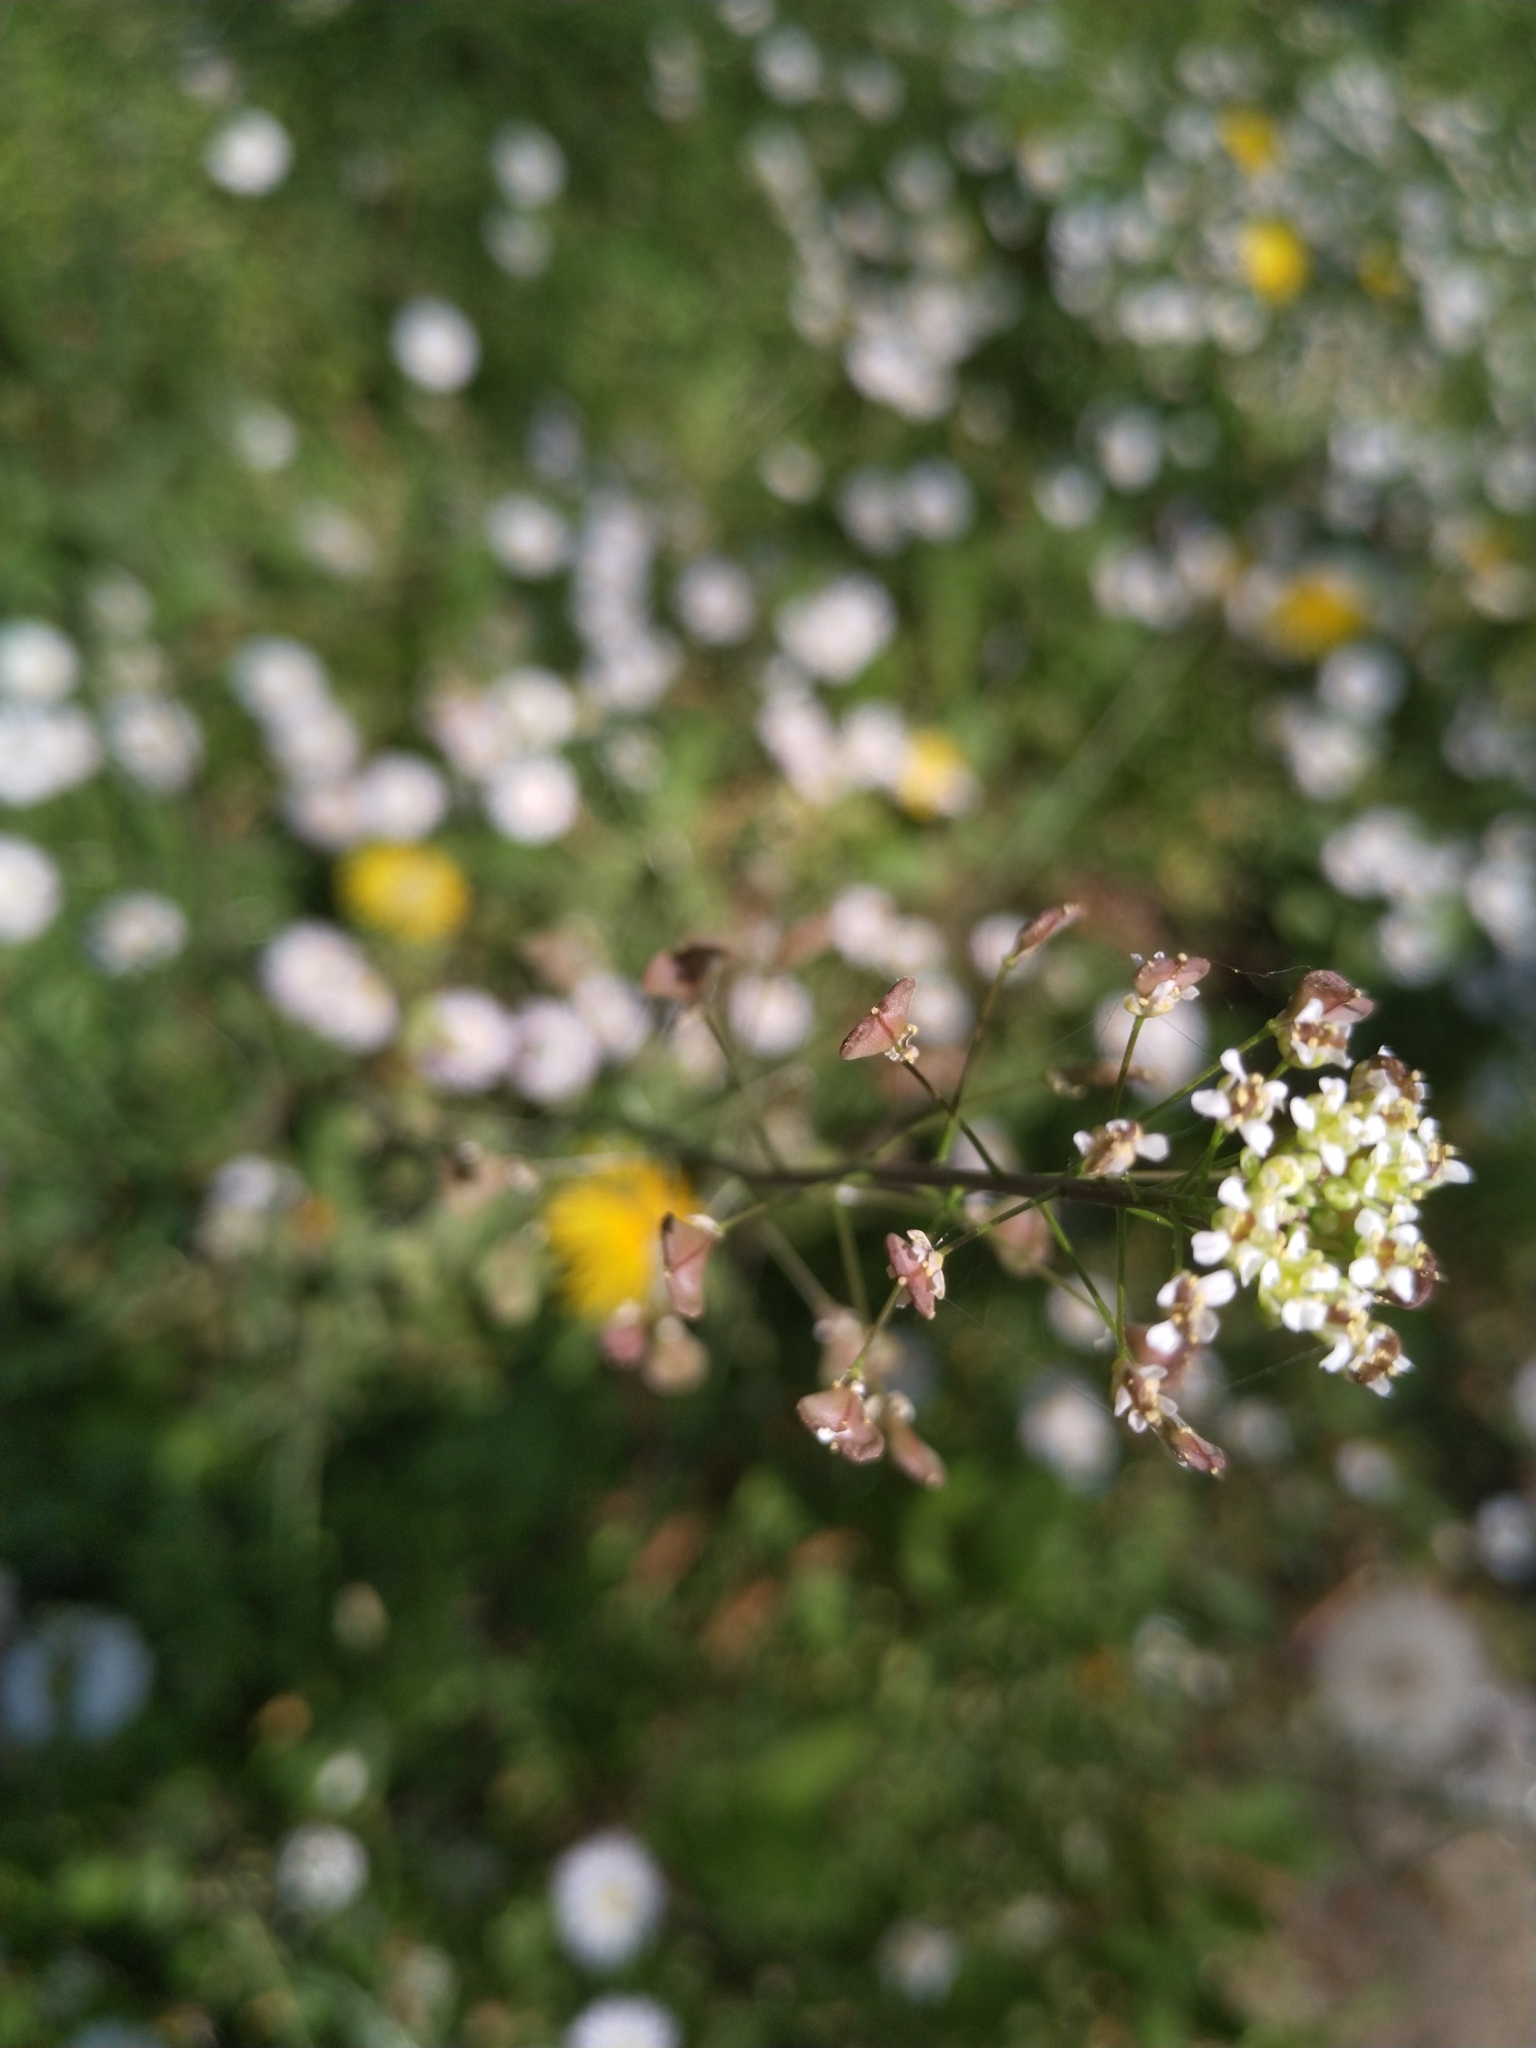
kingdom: Plantae
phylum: Tracheophyta
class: Magnoliopsida
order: Brassicales
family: Brassicaceae
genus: Capsella
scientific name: Capsella bursa-pastoris
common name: Shepherd's purse
